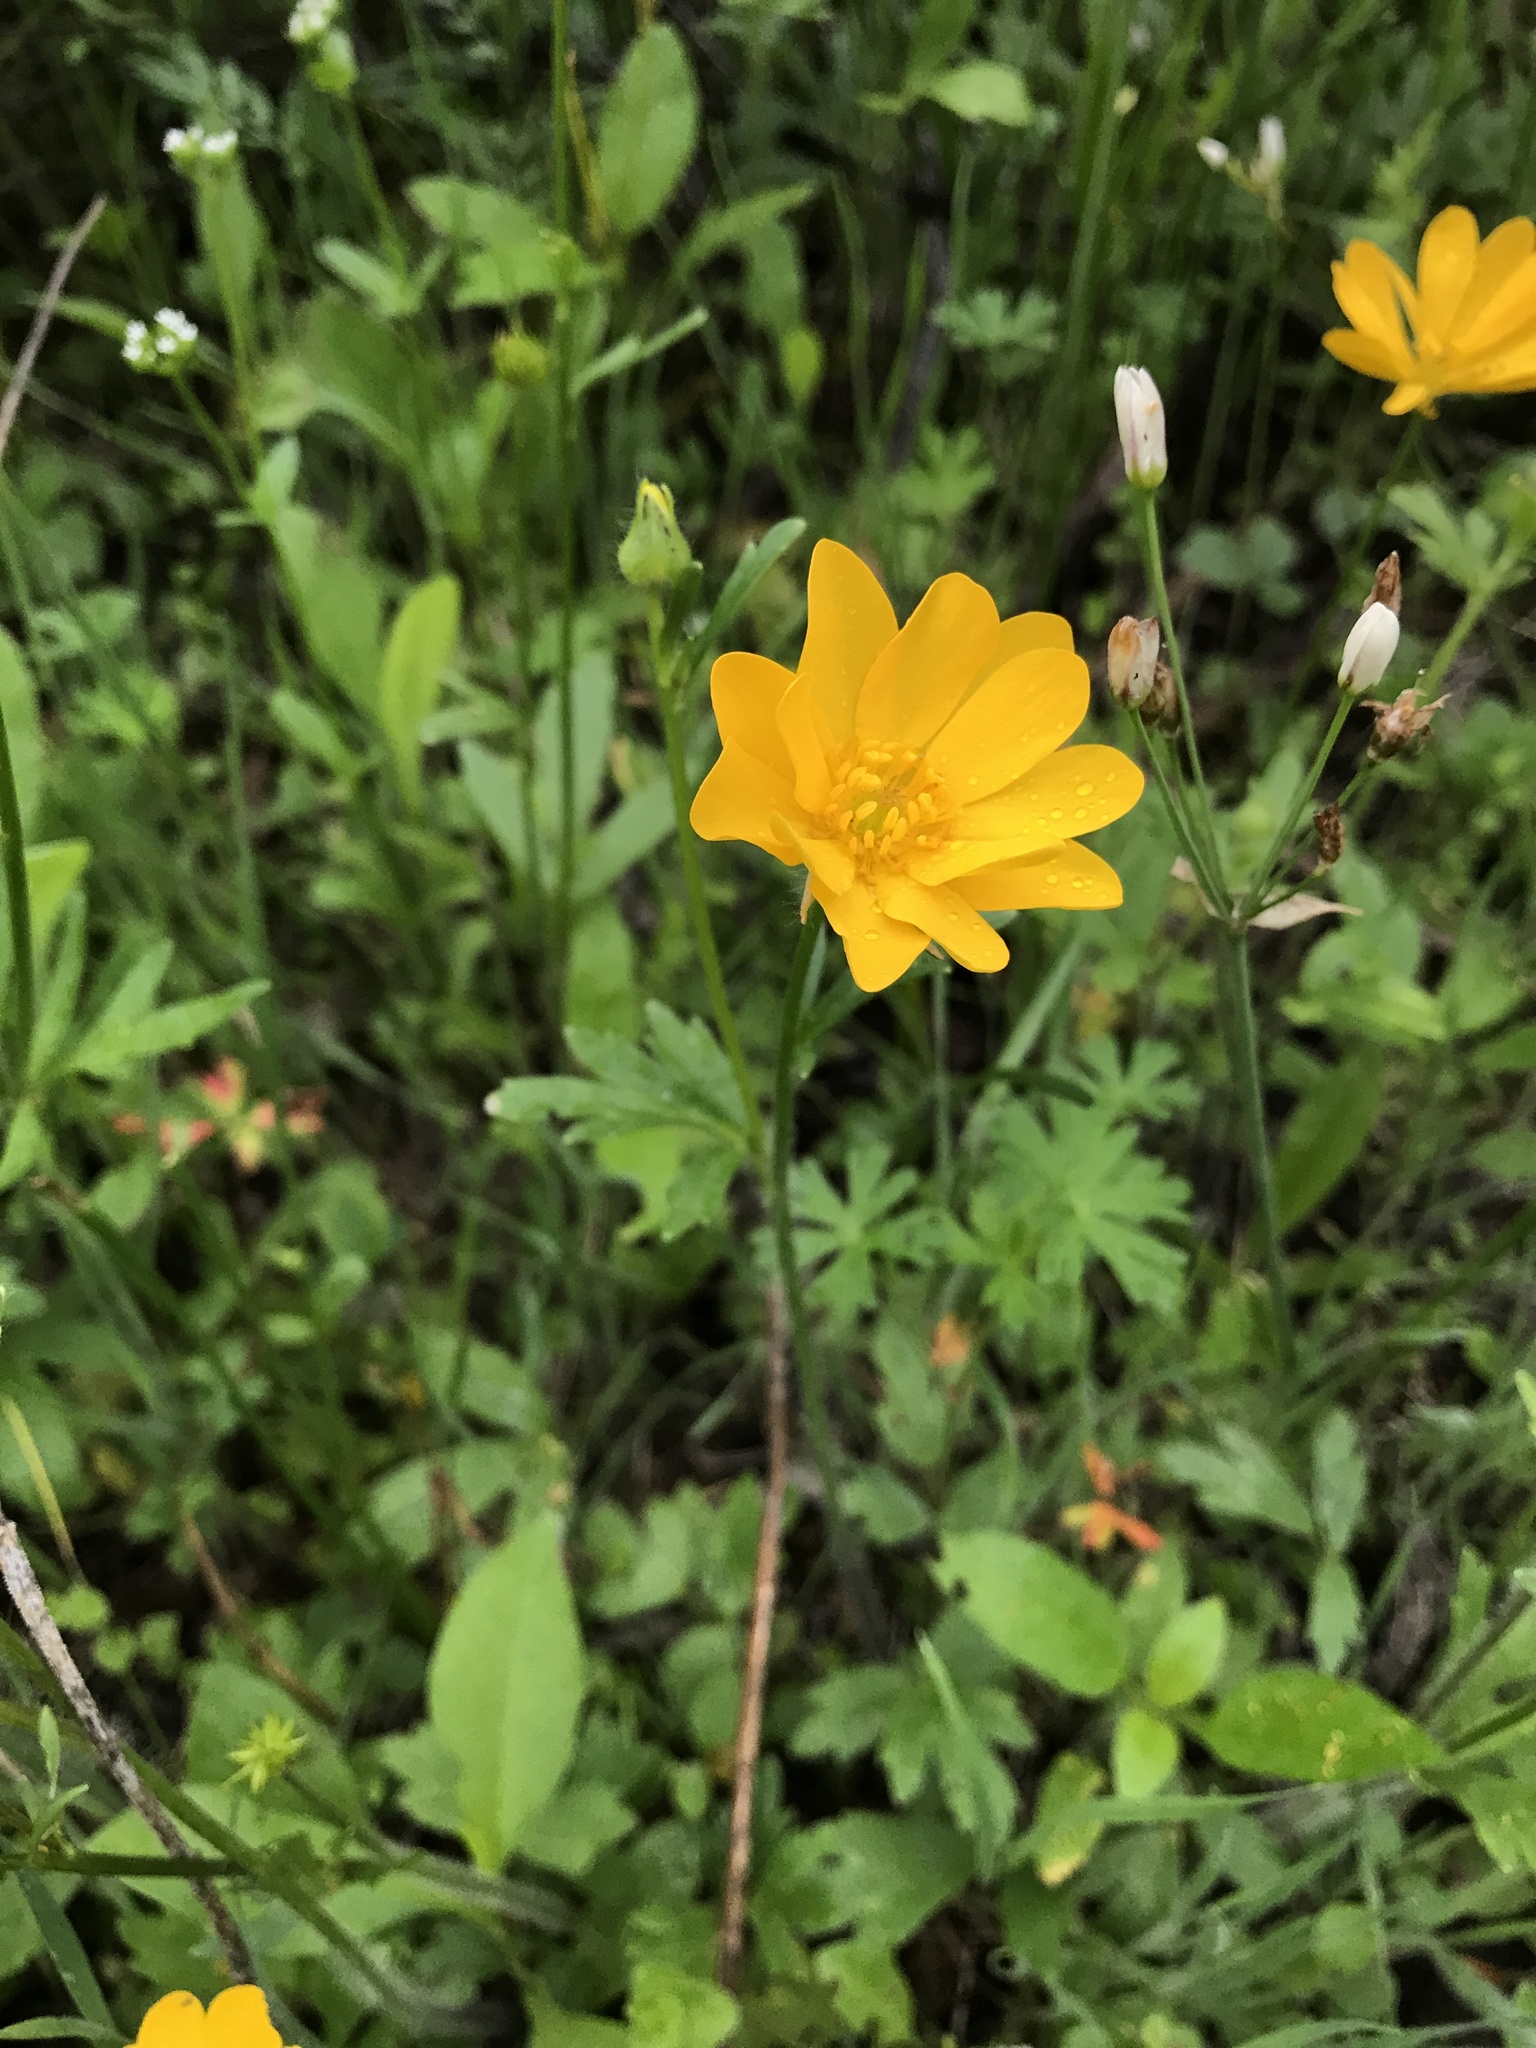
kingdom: Plantae
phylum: Tracheophyta
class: Magnoliopsida
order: Ranunculales
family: Ranunculaceae
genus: Ranunculus
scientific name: Ranunculus macranthus
